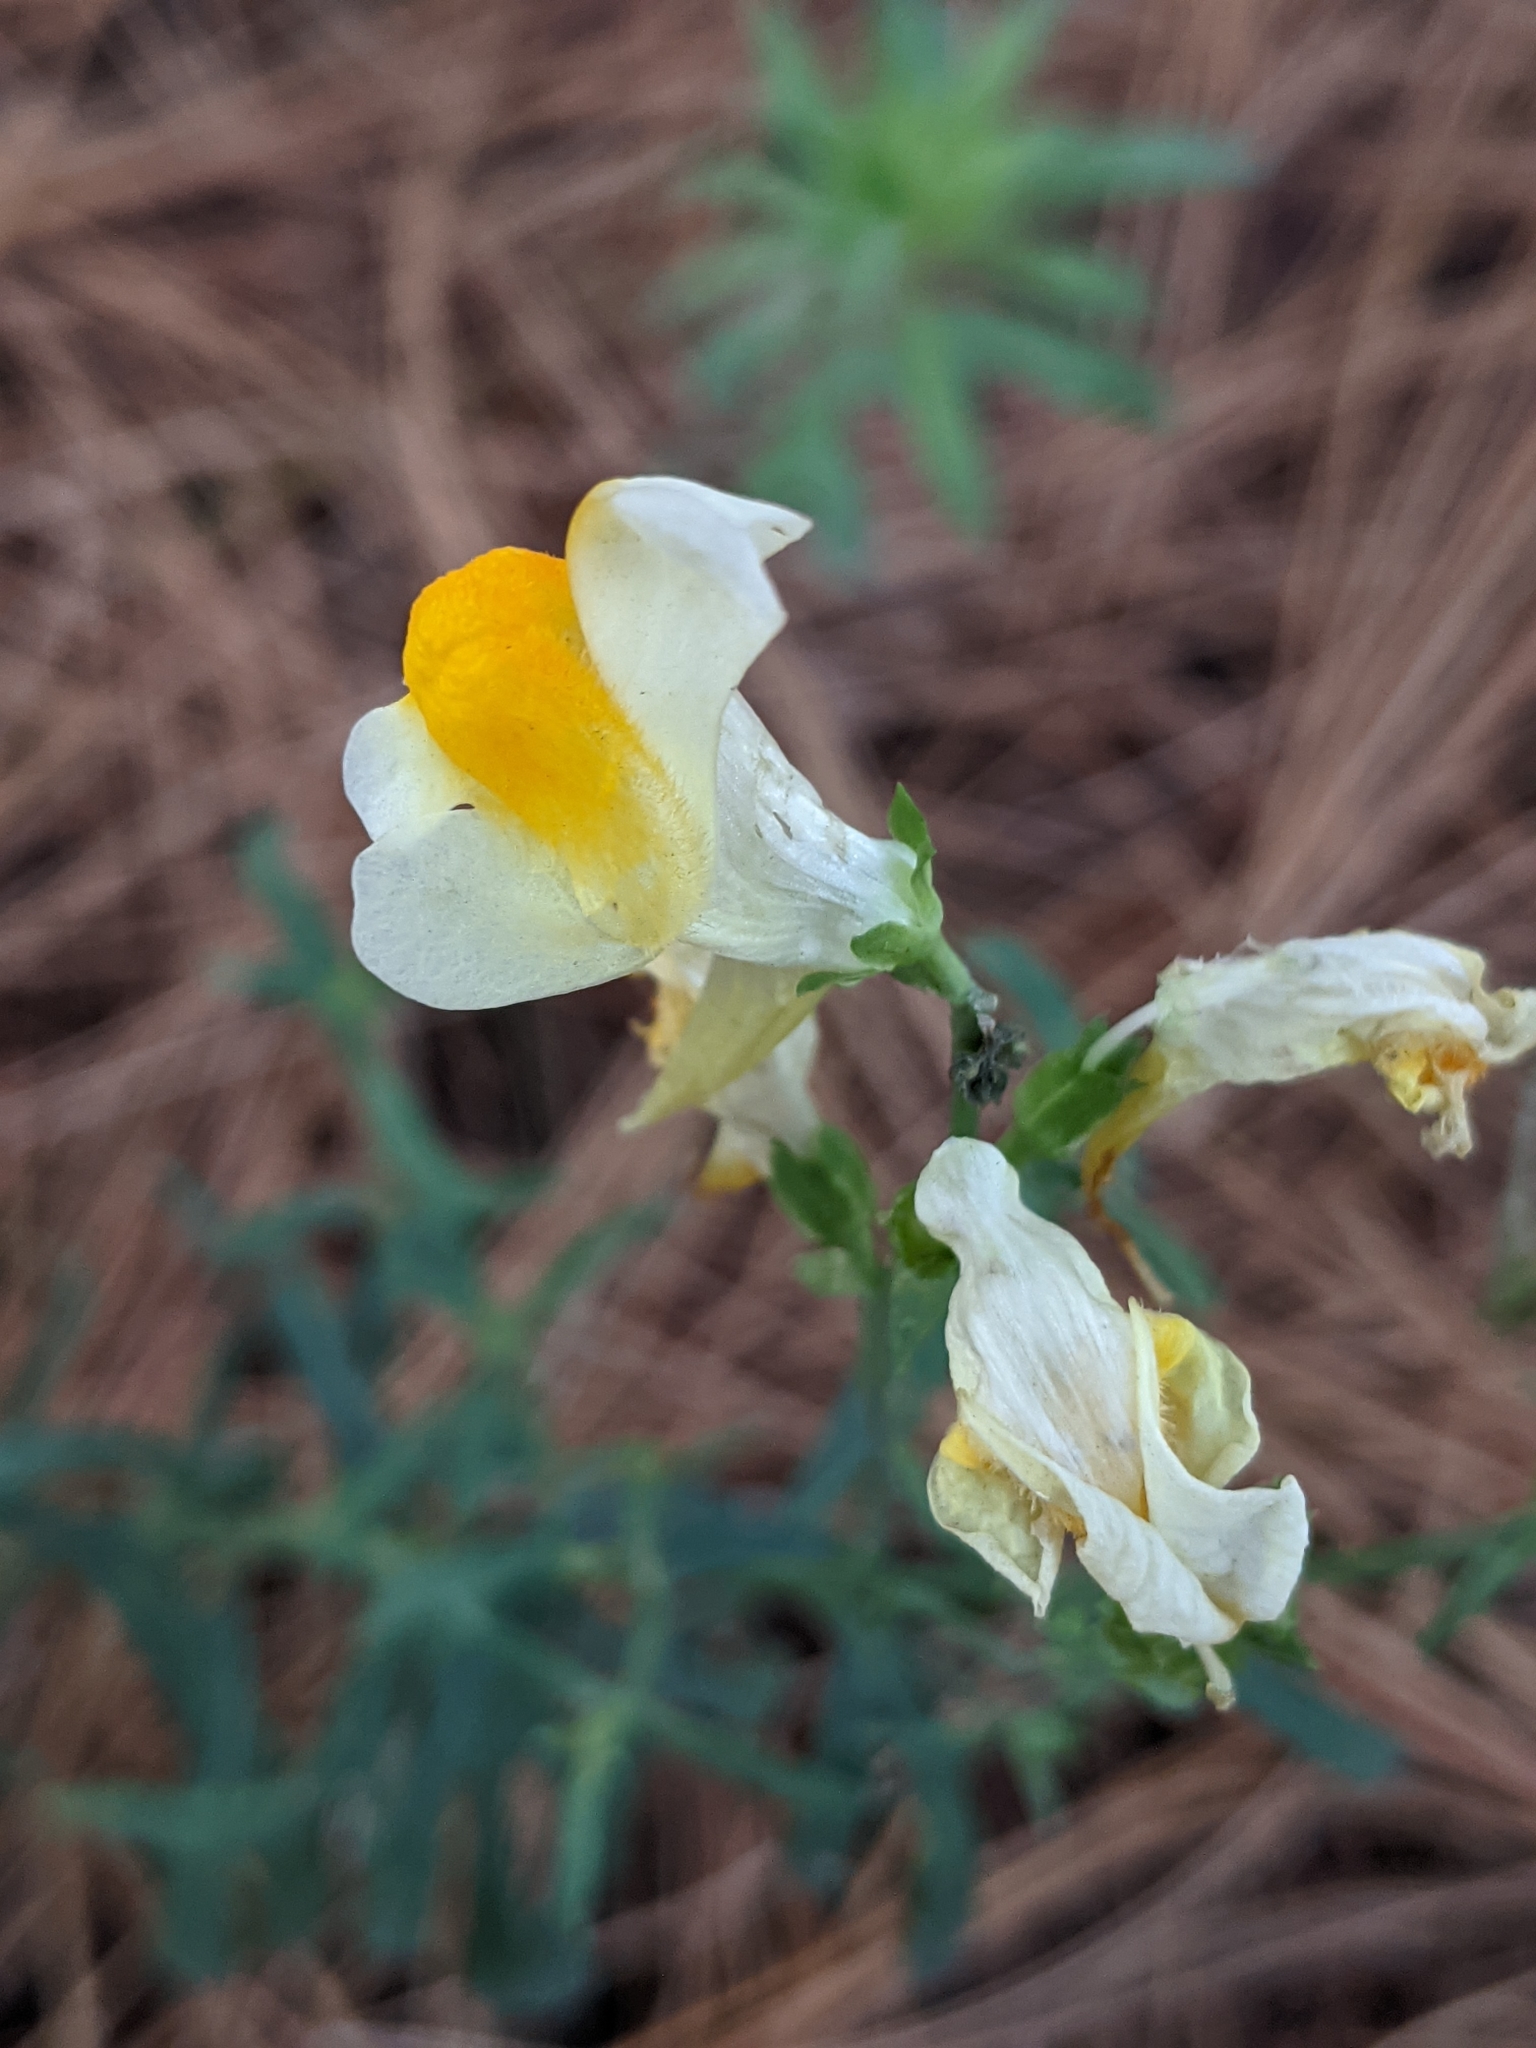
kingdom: Plantae
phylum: Tracheophyta
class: Magnoliopsida
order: Lamiales
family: Plantaginaceae
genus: Linaria
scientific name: Linaria vulgaris
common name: Butter and eggs
